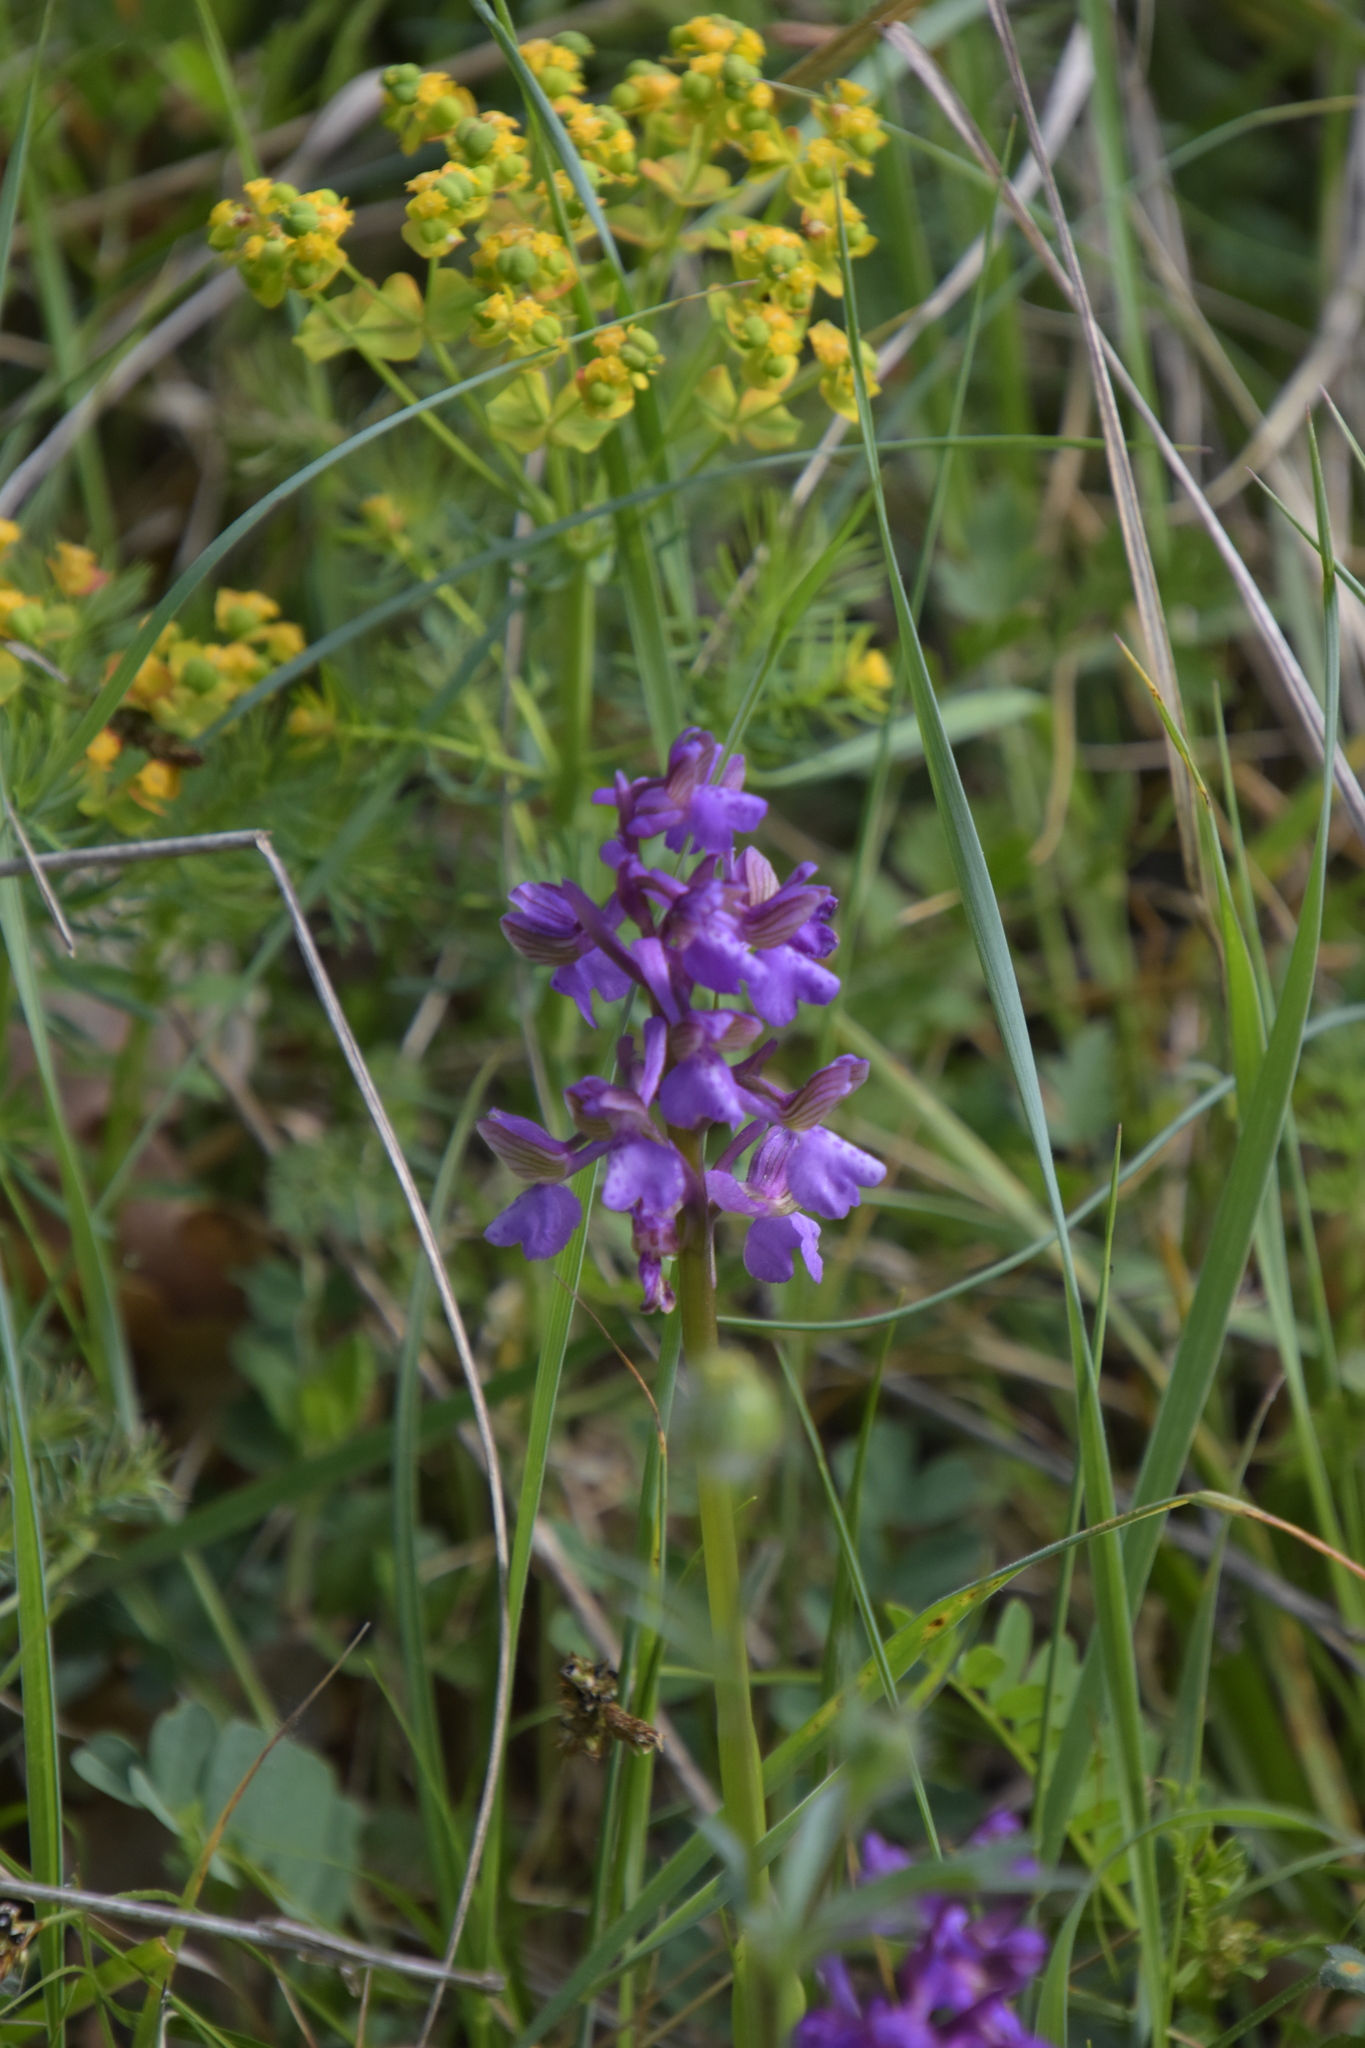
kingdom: Plantae
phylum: Tracheophyta
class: Liliopsida
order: Asparagales
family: Orchidaceae
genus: Anacamptis
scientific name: Anacamptis morio
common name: Green-winged orchid
